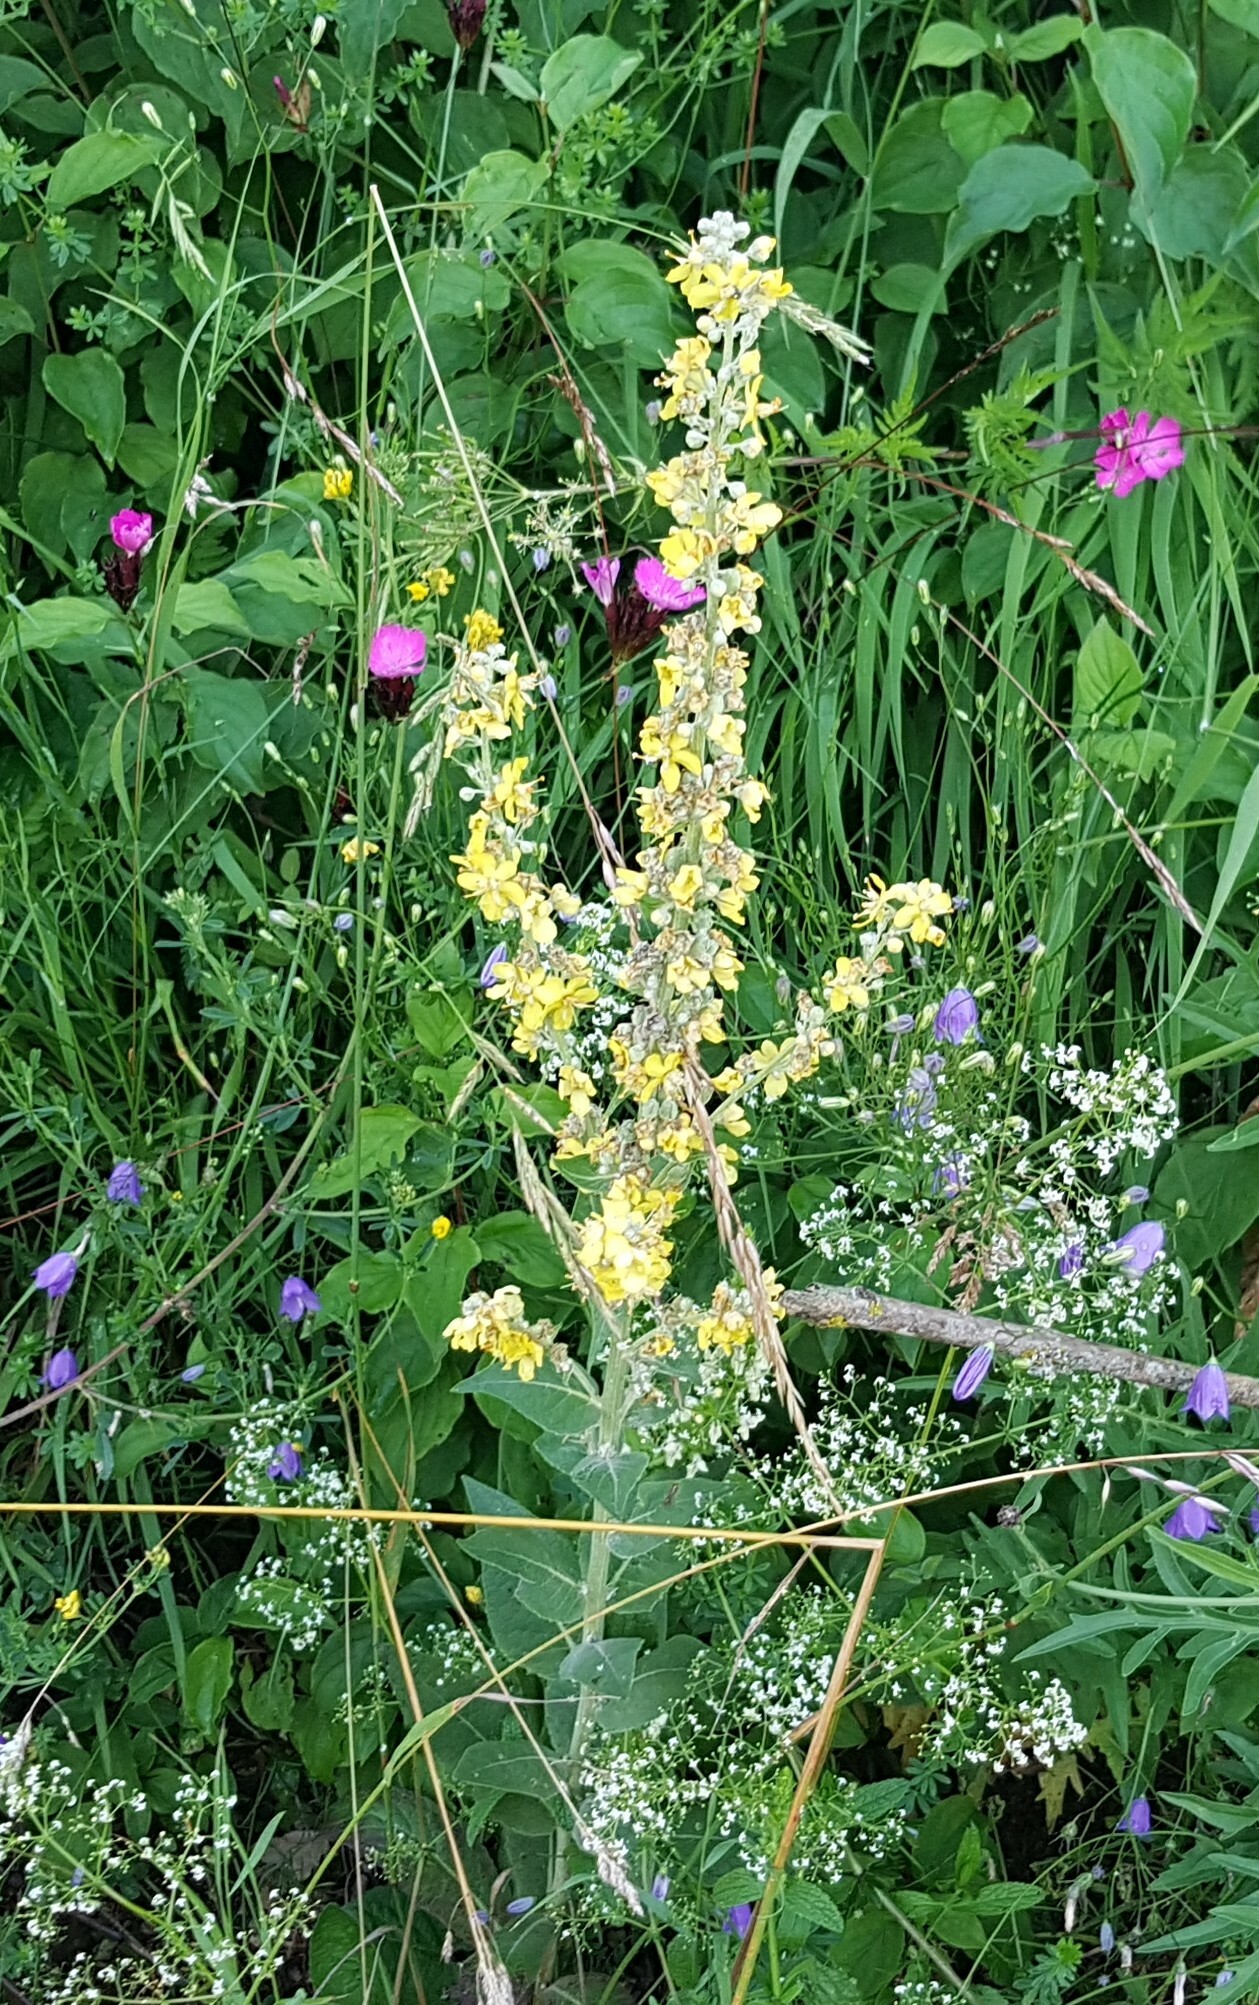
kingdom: Plantae
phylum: Tracheophyta
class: Magnoliopsida
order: Lamiales
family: Scrophulariaceae
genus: Verbascum
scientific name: Verbascum lychnitis
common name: White mullein
